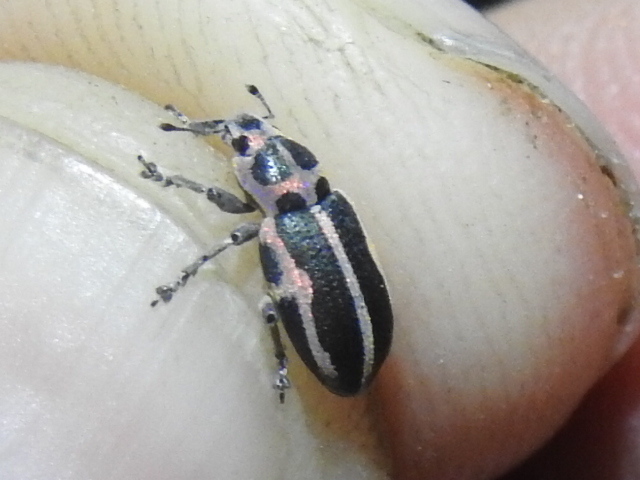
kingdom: Animalia
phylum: Arthropoda
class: Insecta
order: Coleoptera
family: Curculionidae
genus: Eudiagogus
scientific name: Eudiagogus pulcher
